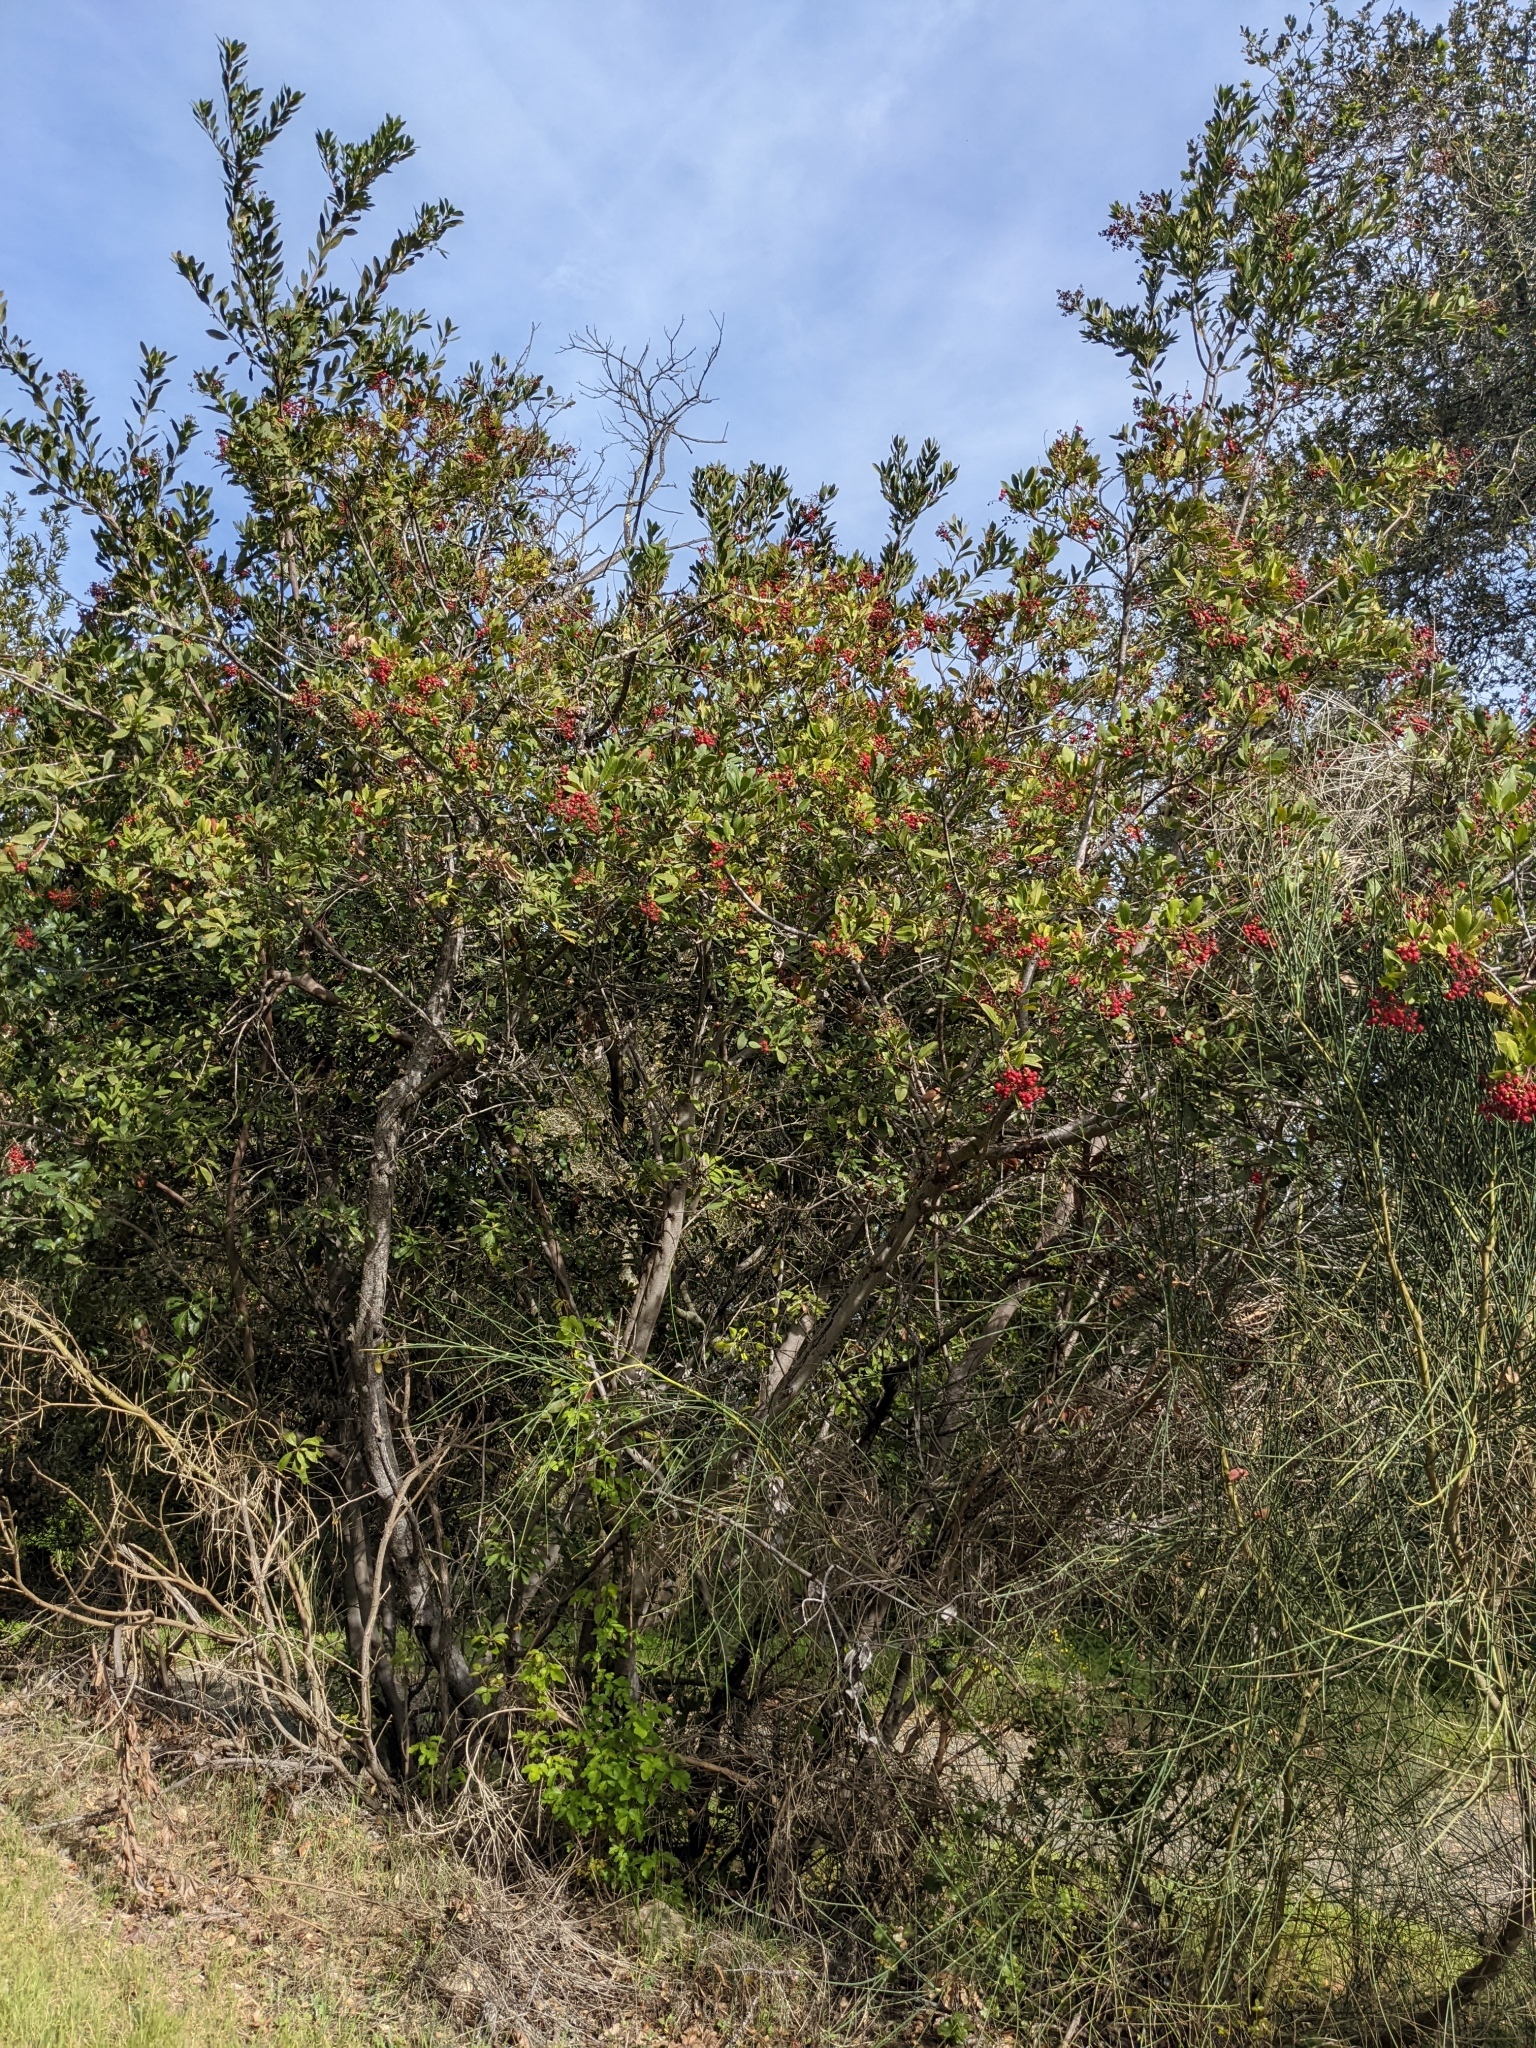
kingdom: Plantae
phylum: Tracheophyta
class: Magnoliopsida
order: Rosales
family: Rosaceae
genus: Heteromeles
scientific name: Heteromeles arbutifolia
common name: California-holly
